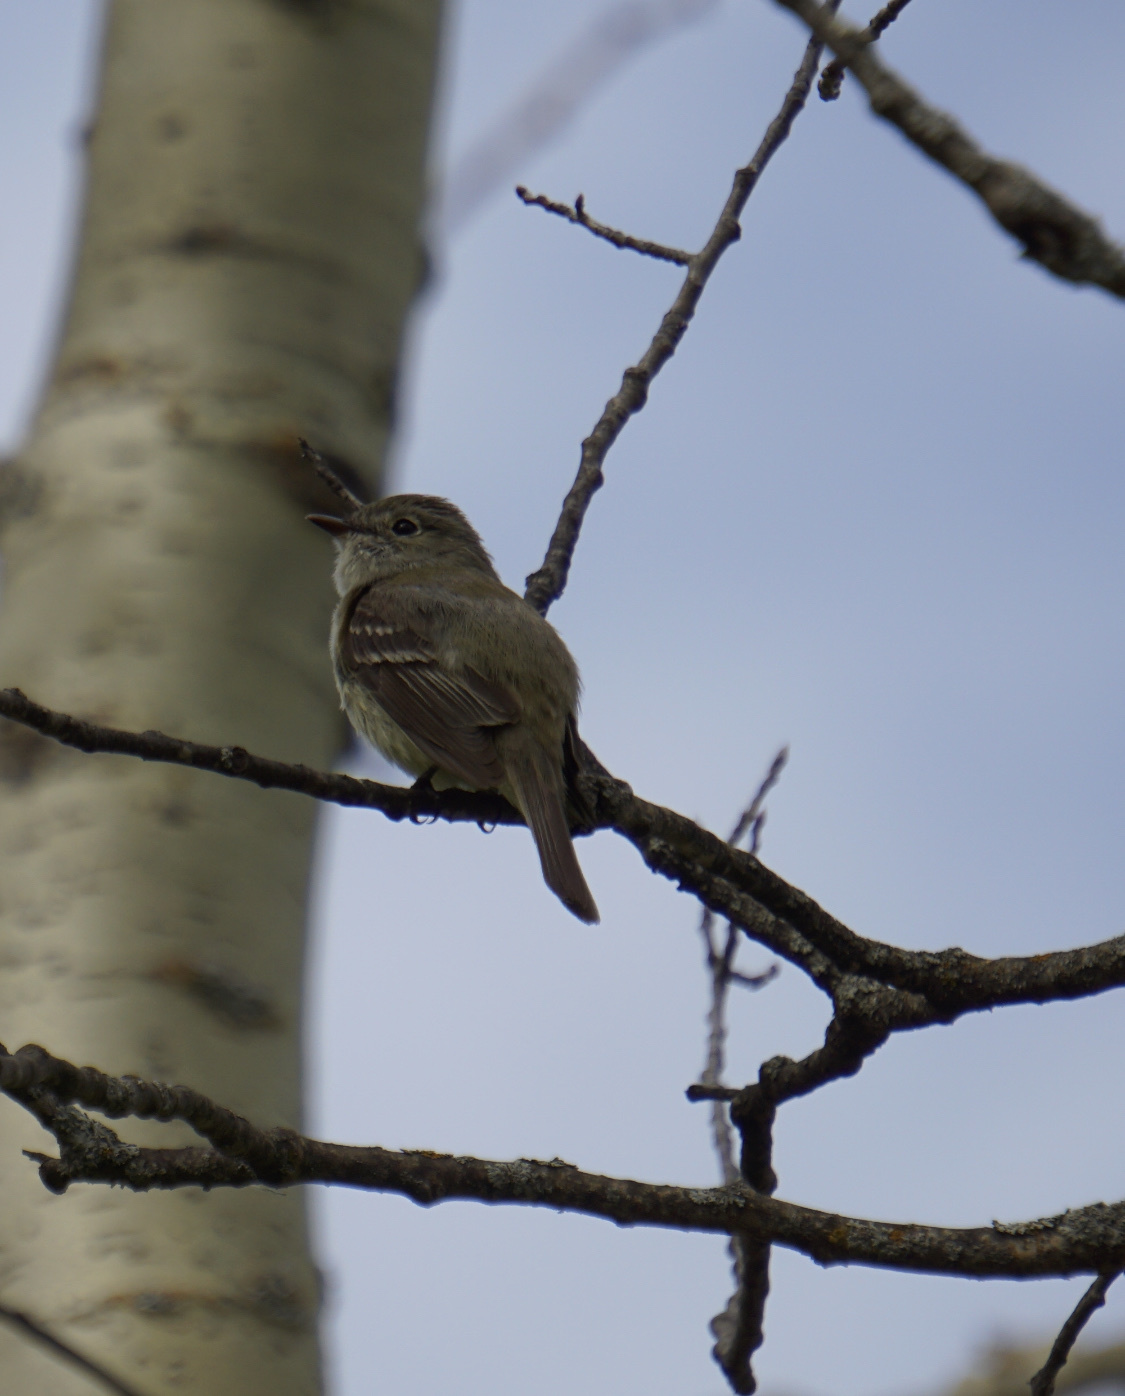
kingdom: Animalia
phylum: Chordata
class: Aves
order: Passeriformes
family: Tyrannidae
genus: Empidonax
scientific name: Empidonax minimus
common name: Least flycatcher
